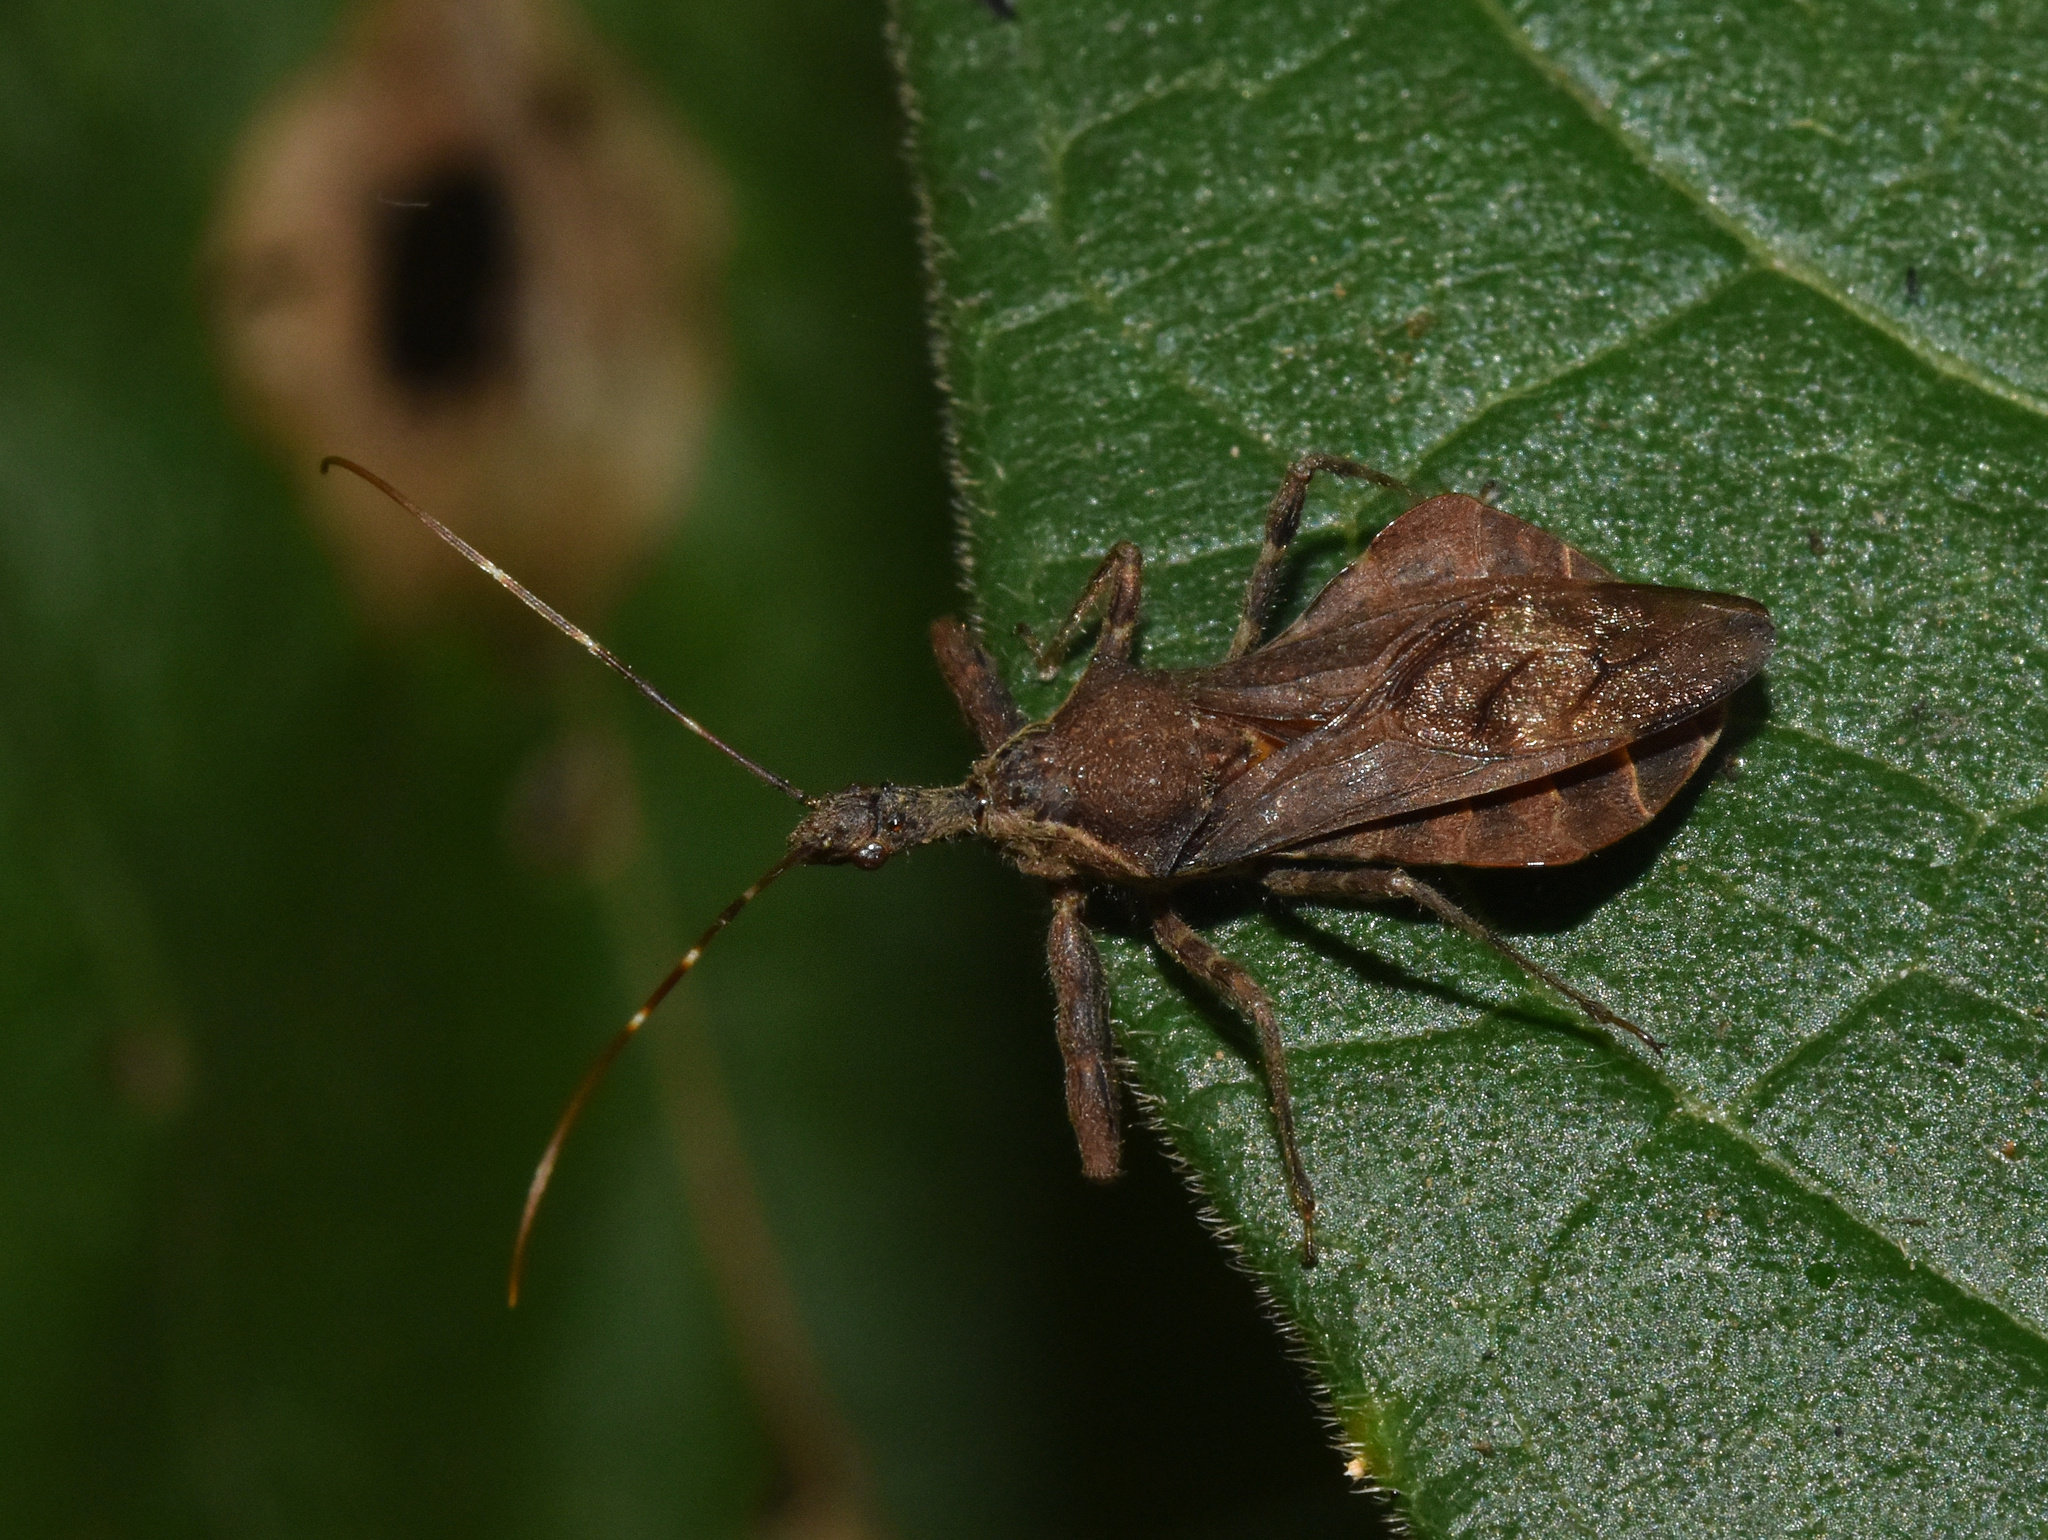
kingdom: Animalia
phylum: Arthropoda
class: Insecta
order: Hemiptera
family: Reduviidae
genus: Vadimon
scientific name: Vadimon bergrothi
